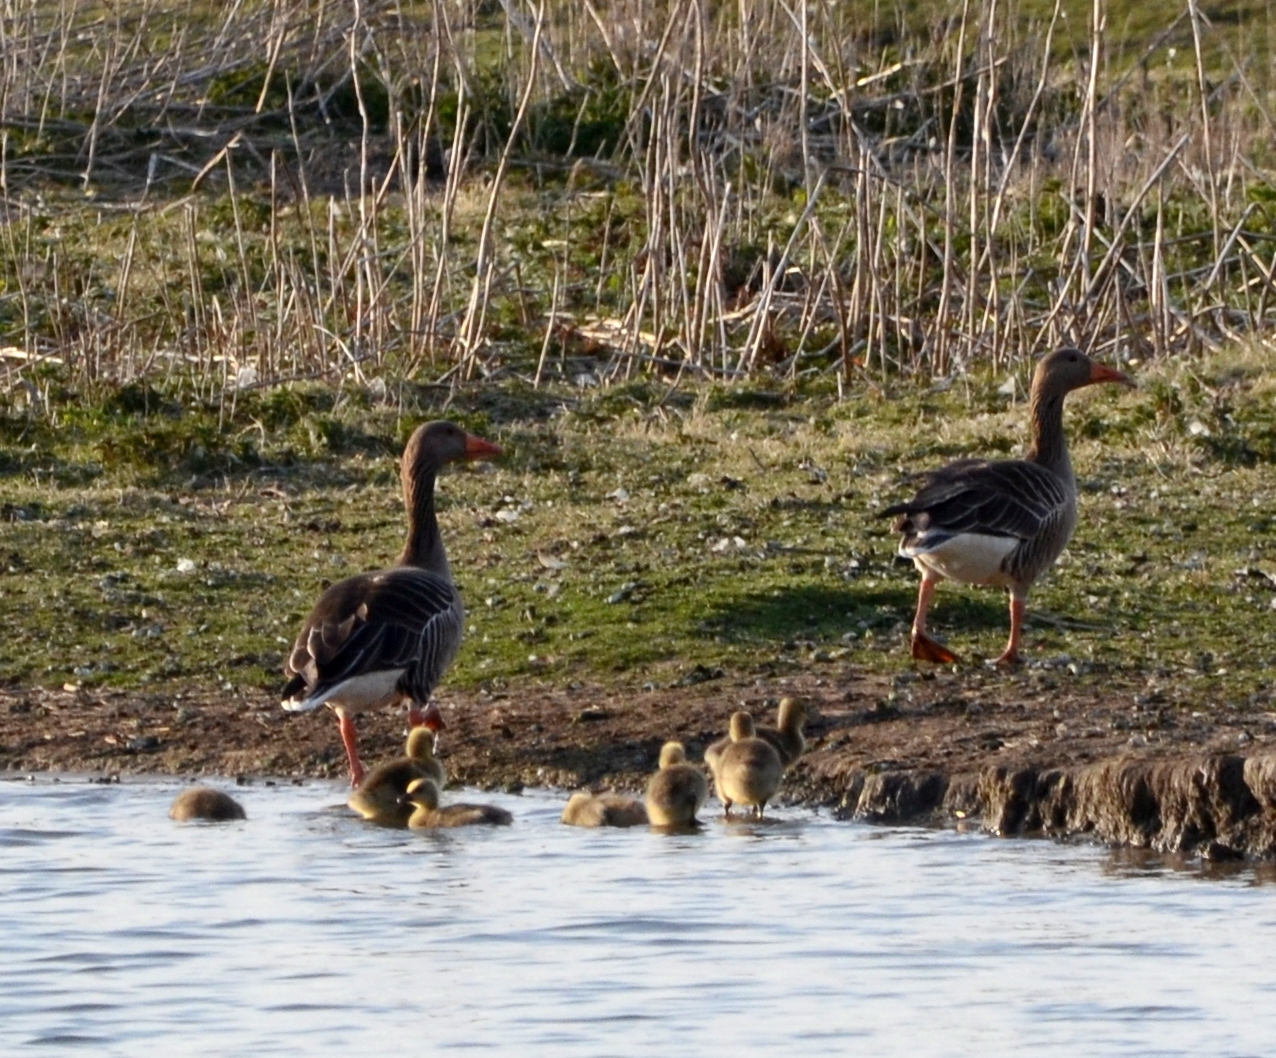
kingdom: Animalia
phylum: Chordata
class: Aves
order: Anseriformes
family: Anatidae
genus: Anser
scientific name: Anser anser
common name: Greylag goose
